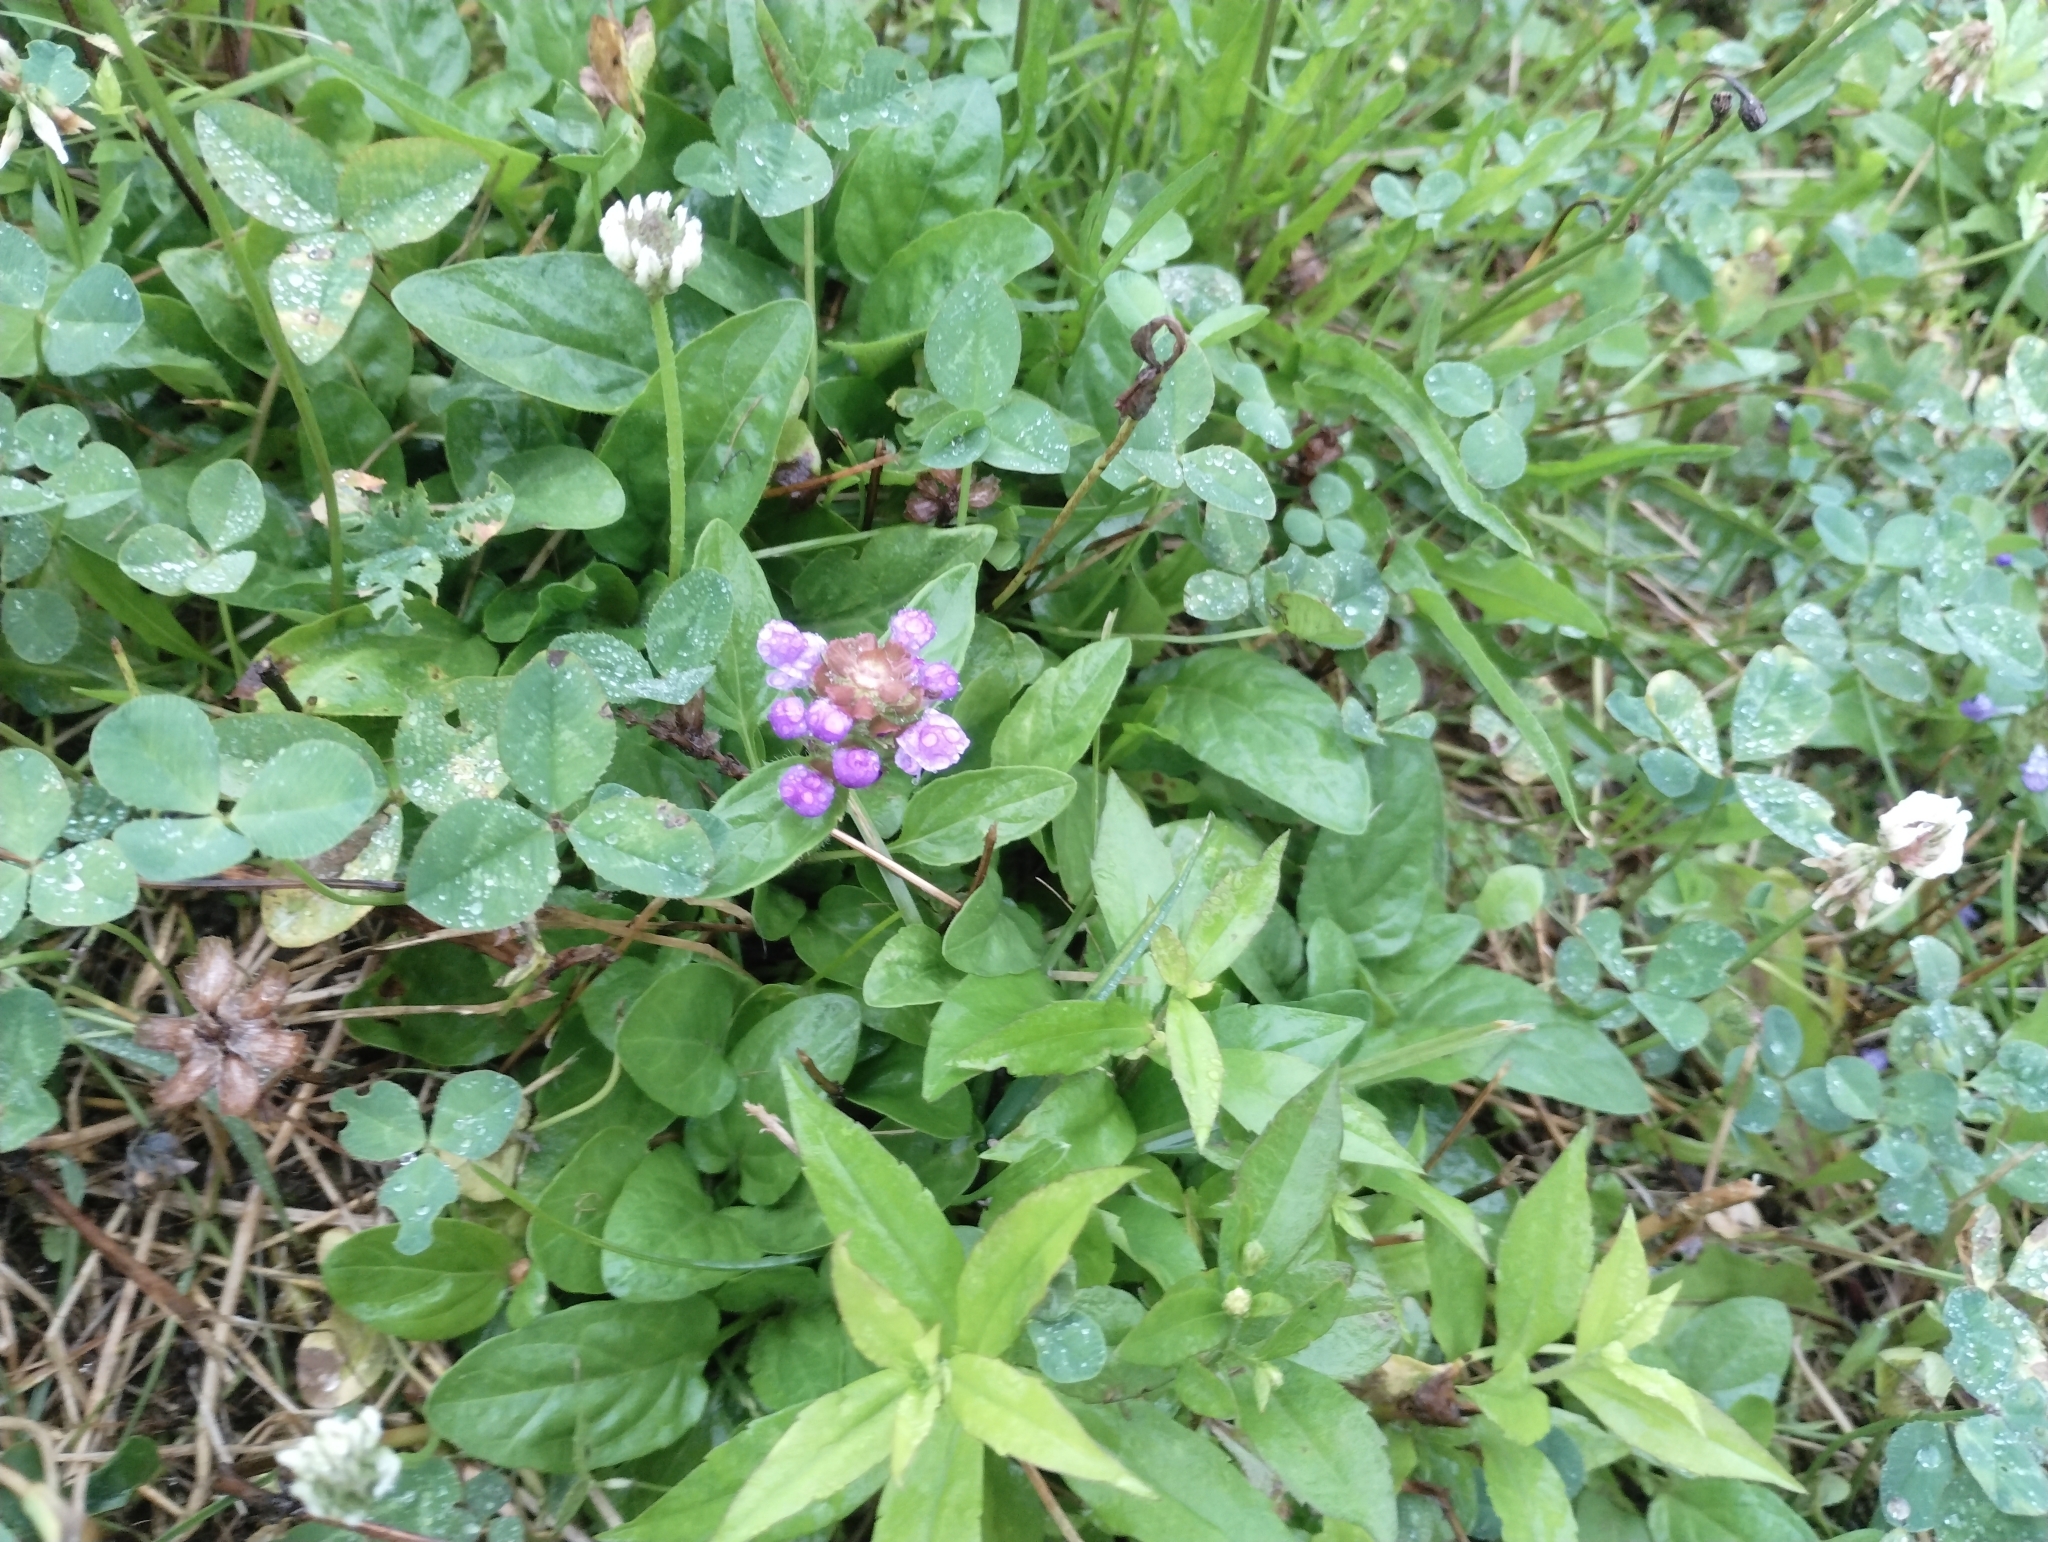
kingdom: Plantae
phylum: Tracheophyta
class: Magnoliopsida
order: Lamiales
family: Lamiaceae
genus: Prunella
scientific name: Prunella vulgaris
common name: Heal-all
